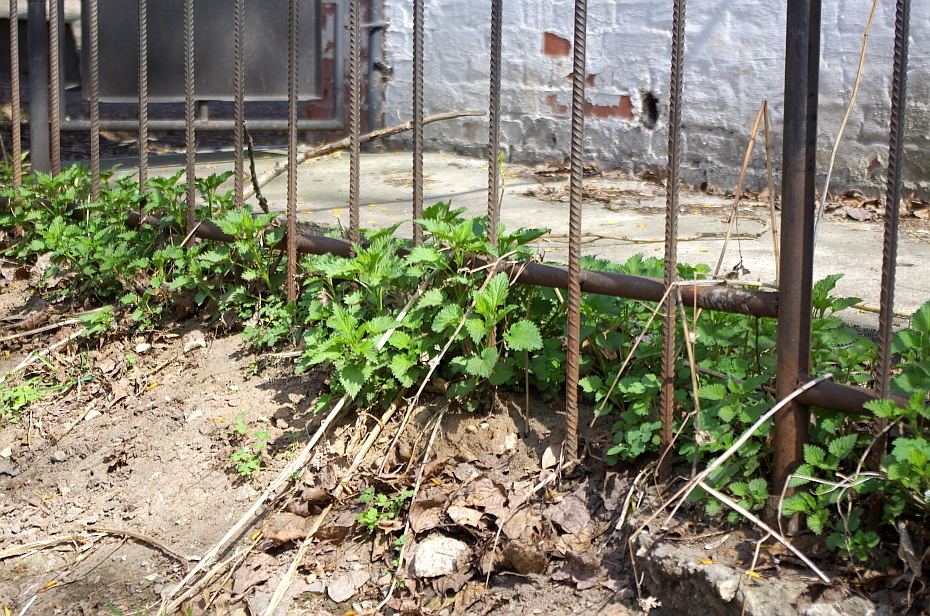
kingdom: Plantae
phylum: Tracheophyta
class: Magnoliopsida
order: Rosales
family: Urticaceae
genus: Urtica
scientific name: Urtica dioica
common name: Common nettle
